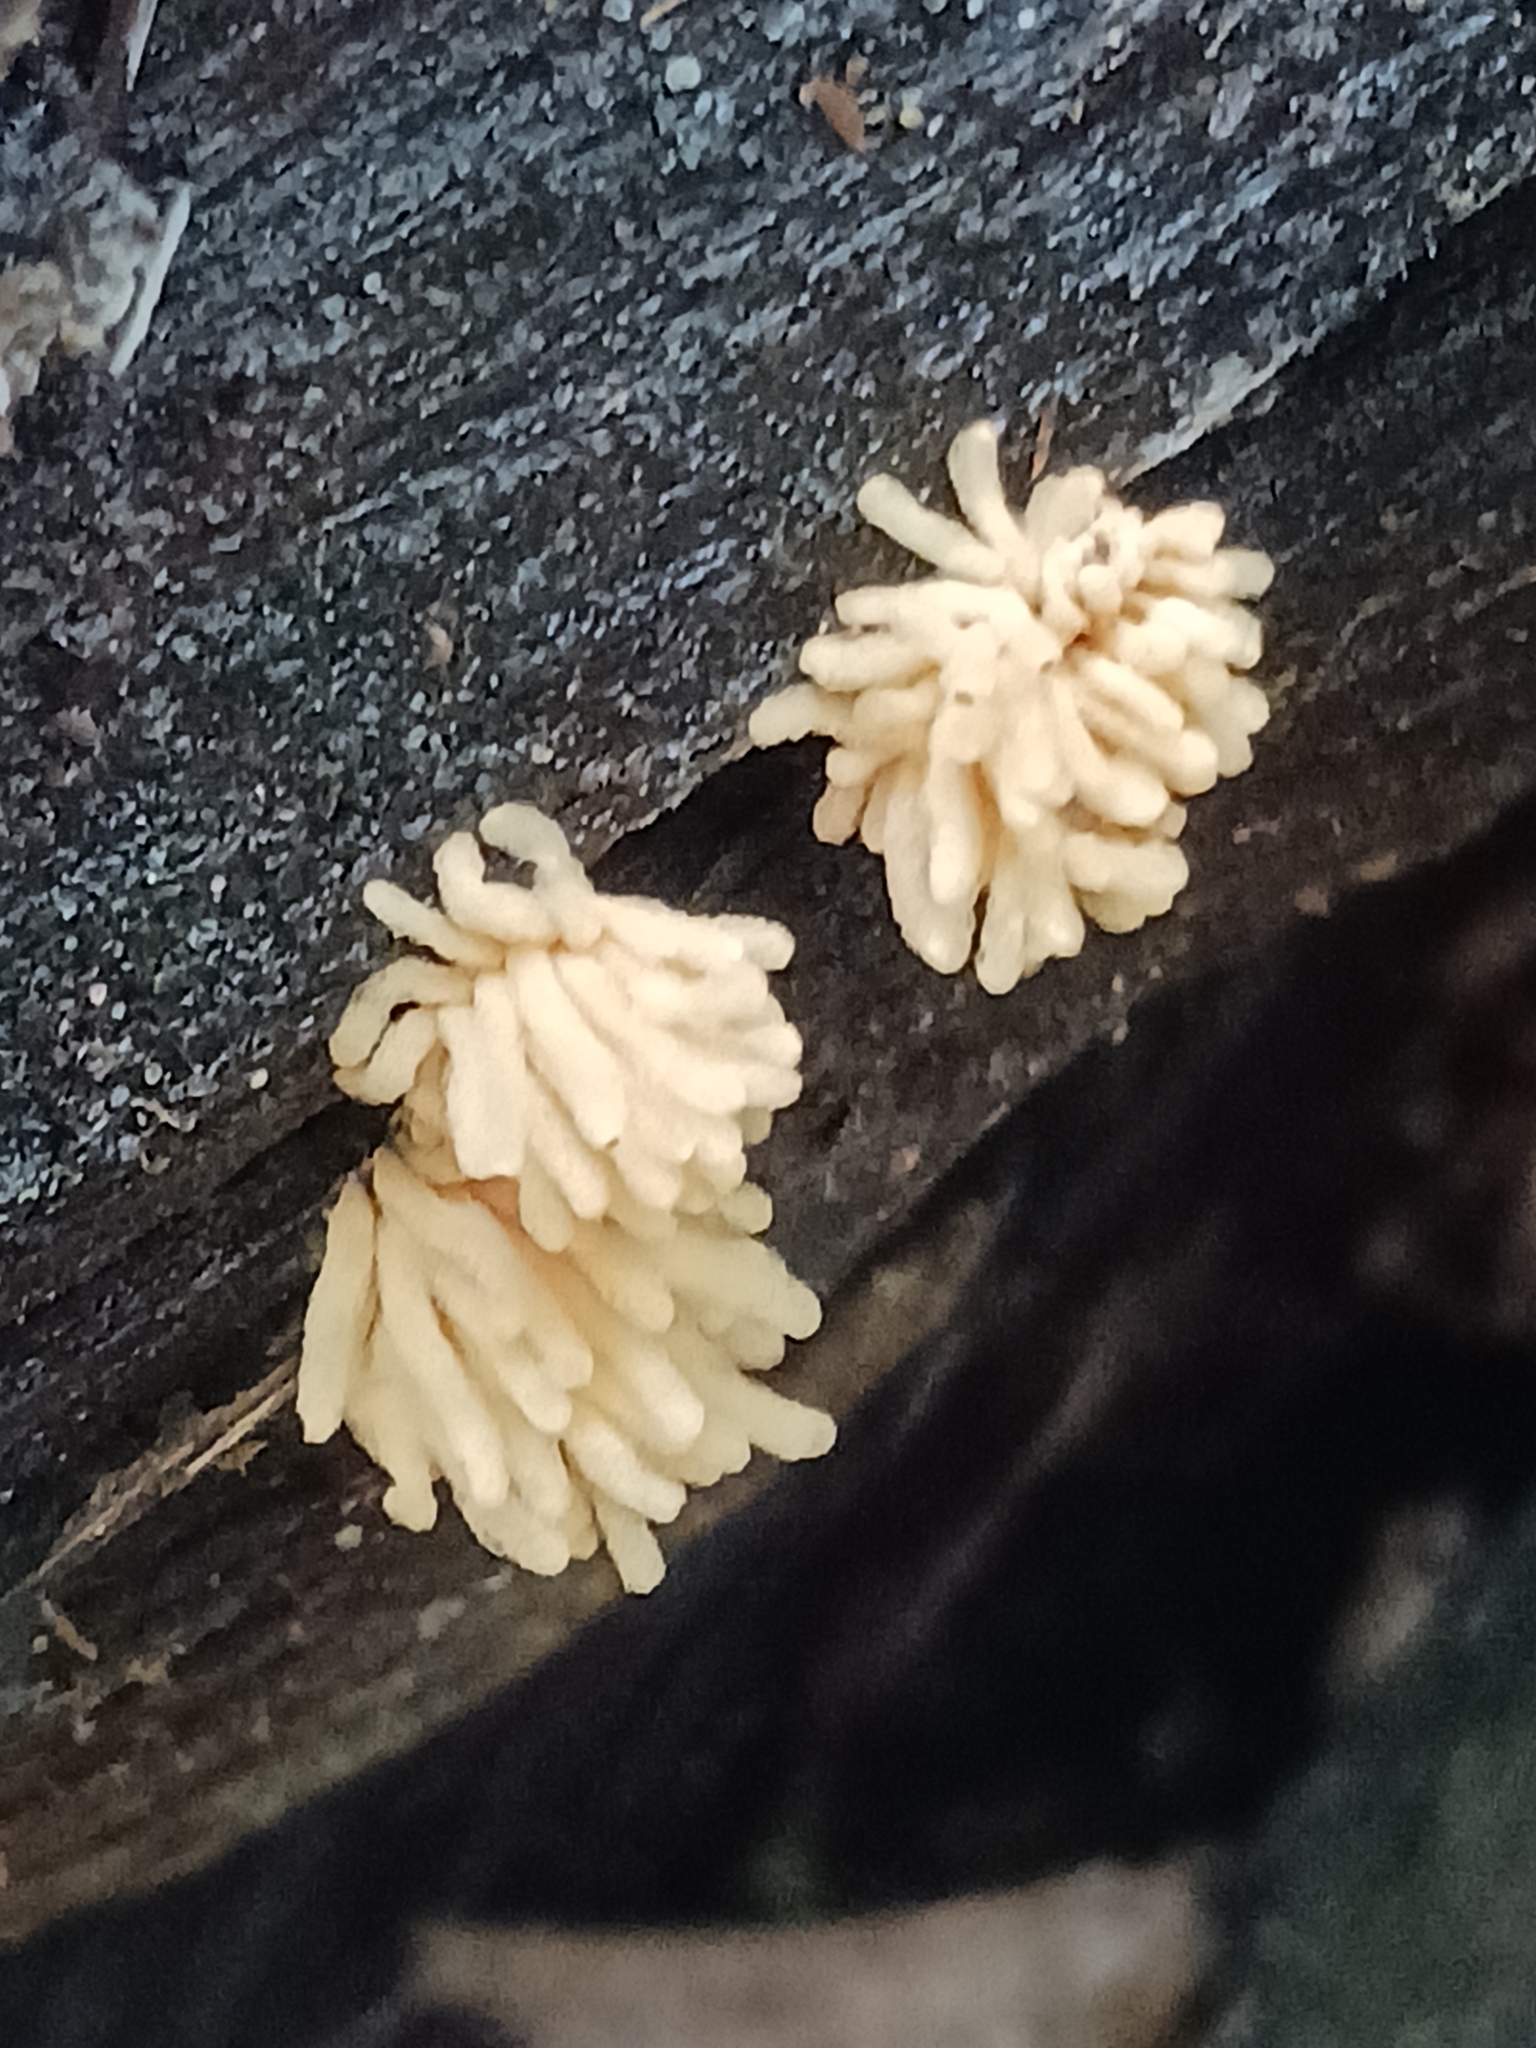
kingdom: Protozoa
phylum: Mycetozoa
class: Myxomycetes
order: Trichiales
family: Arcyriaceae
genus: Arcyria
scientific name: Arcyria obvelata
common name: Yellow carnival candy slime
